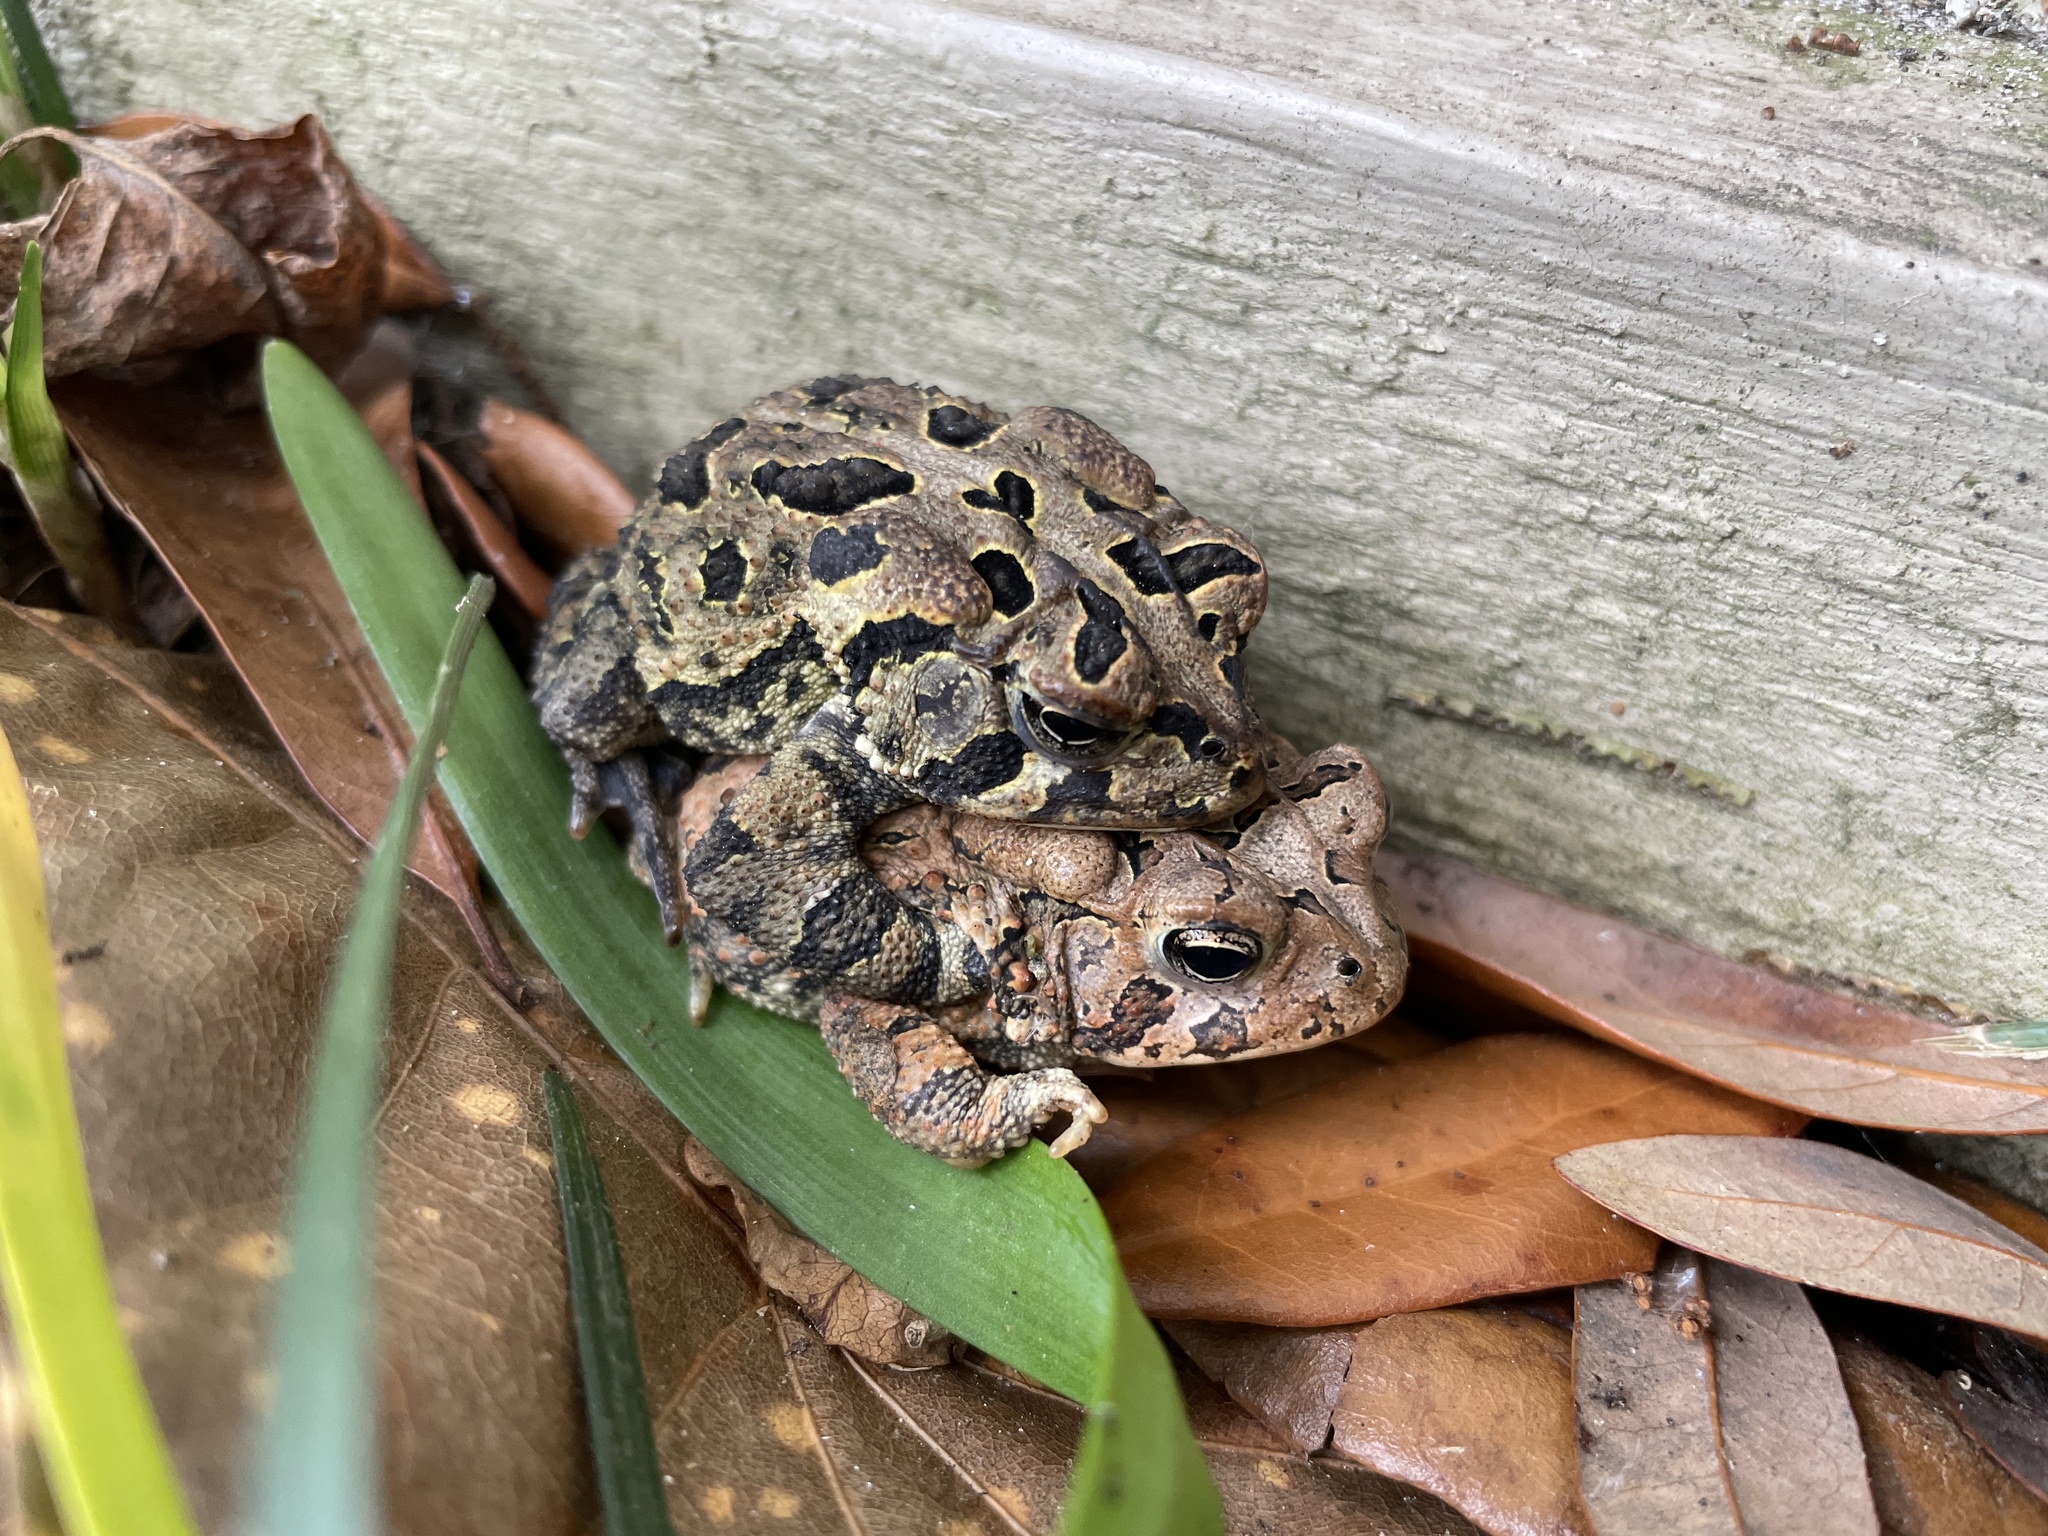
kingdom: Animalia
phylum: Chordata
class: Amphibia
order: Anura
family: Bufonidae
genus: Anaxyrus
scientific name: Anaxyrus terrestris
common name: Southern toad
